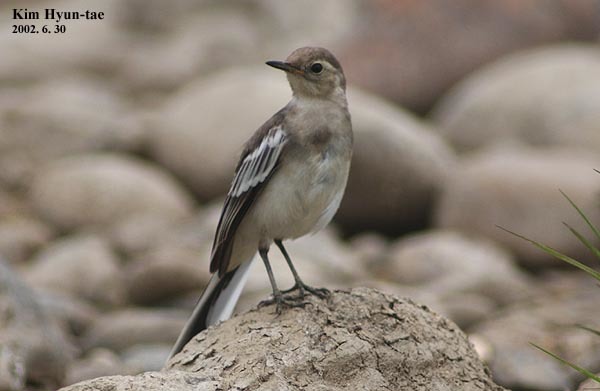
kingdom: Animalia
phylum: Chordata
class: Aves
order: Passeriformes
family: Motacillidae
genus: Motacilla
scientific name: Motacilla alba
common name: White wagtail
